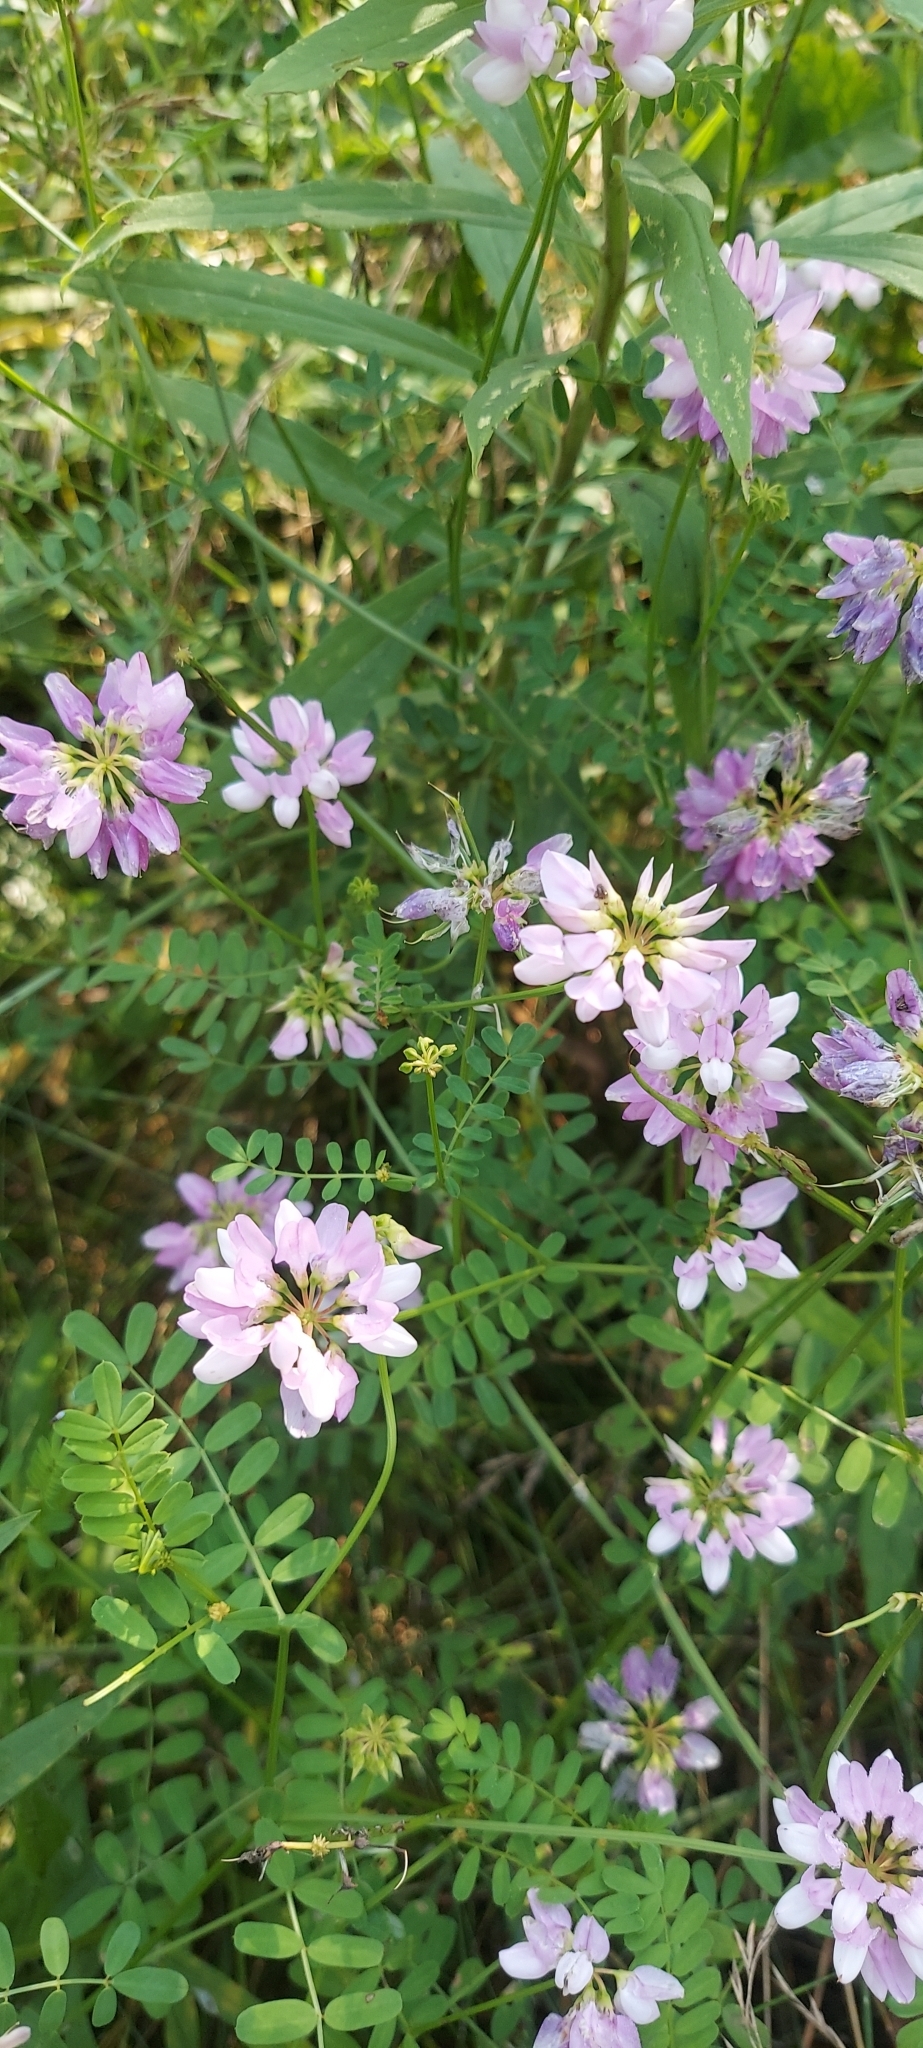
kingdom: Plantae
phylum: Tracheophyta
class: Magnoliopsida
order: Fabales
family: Fabaceae
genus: Coronilla
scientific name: Coronilla varia
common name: Crownvetch
